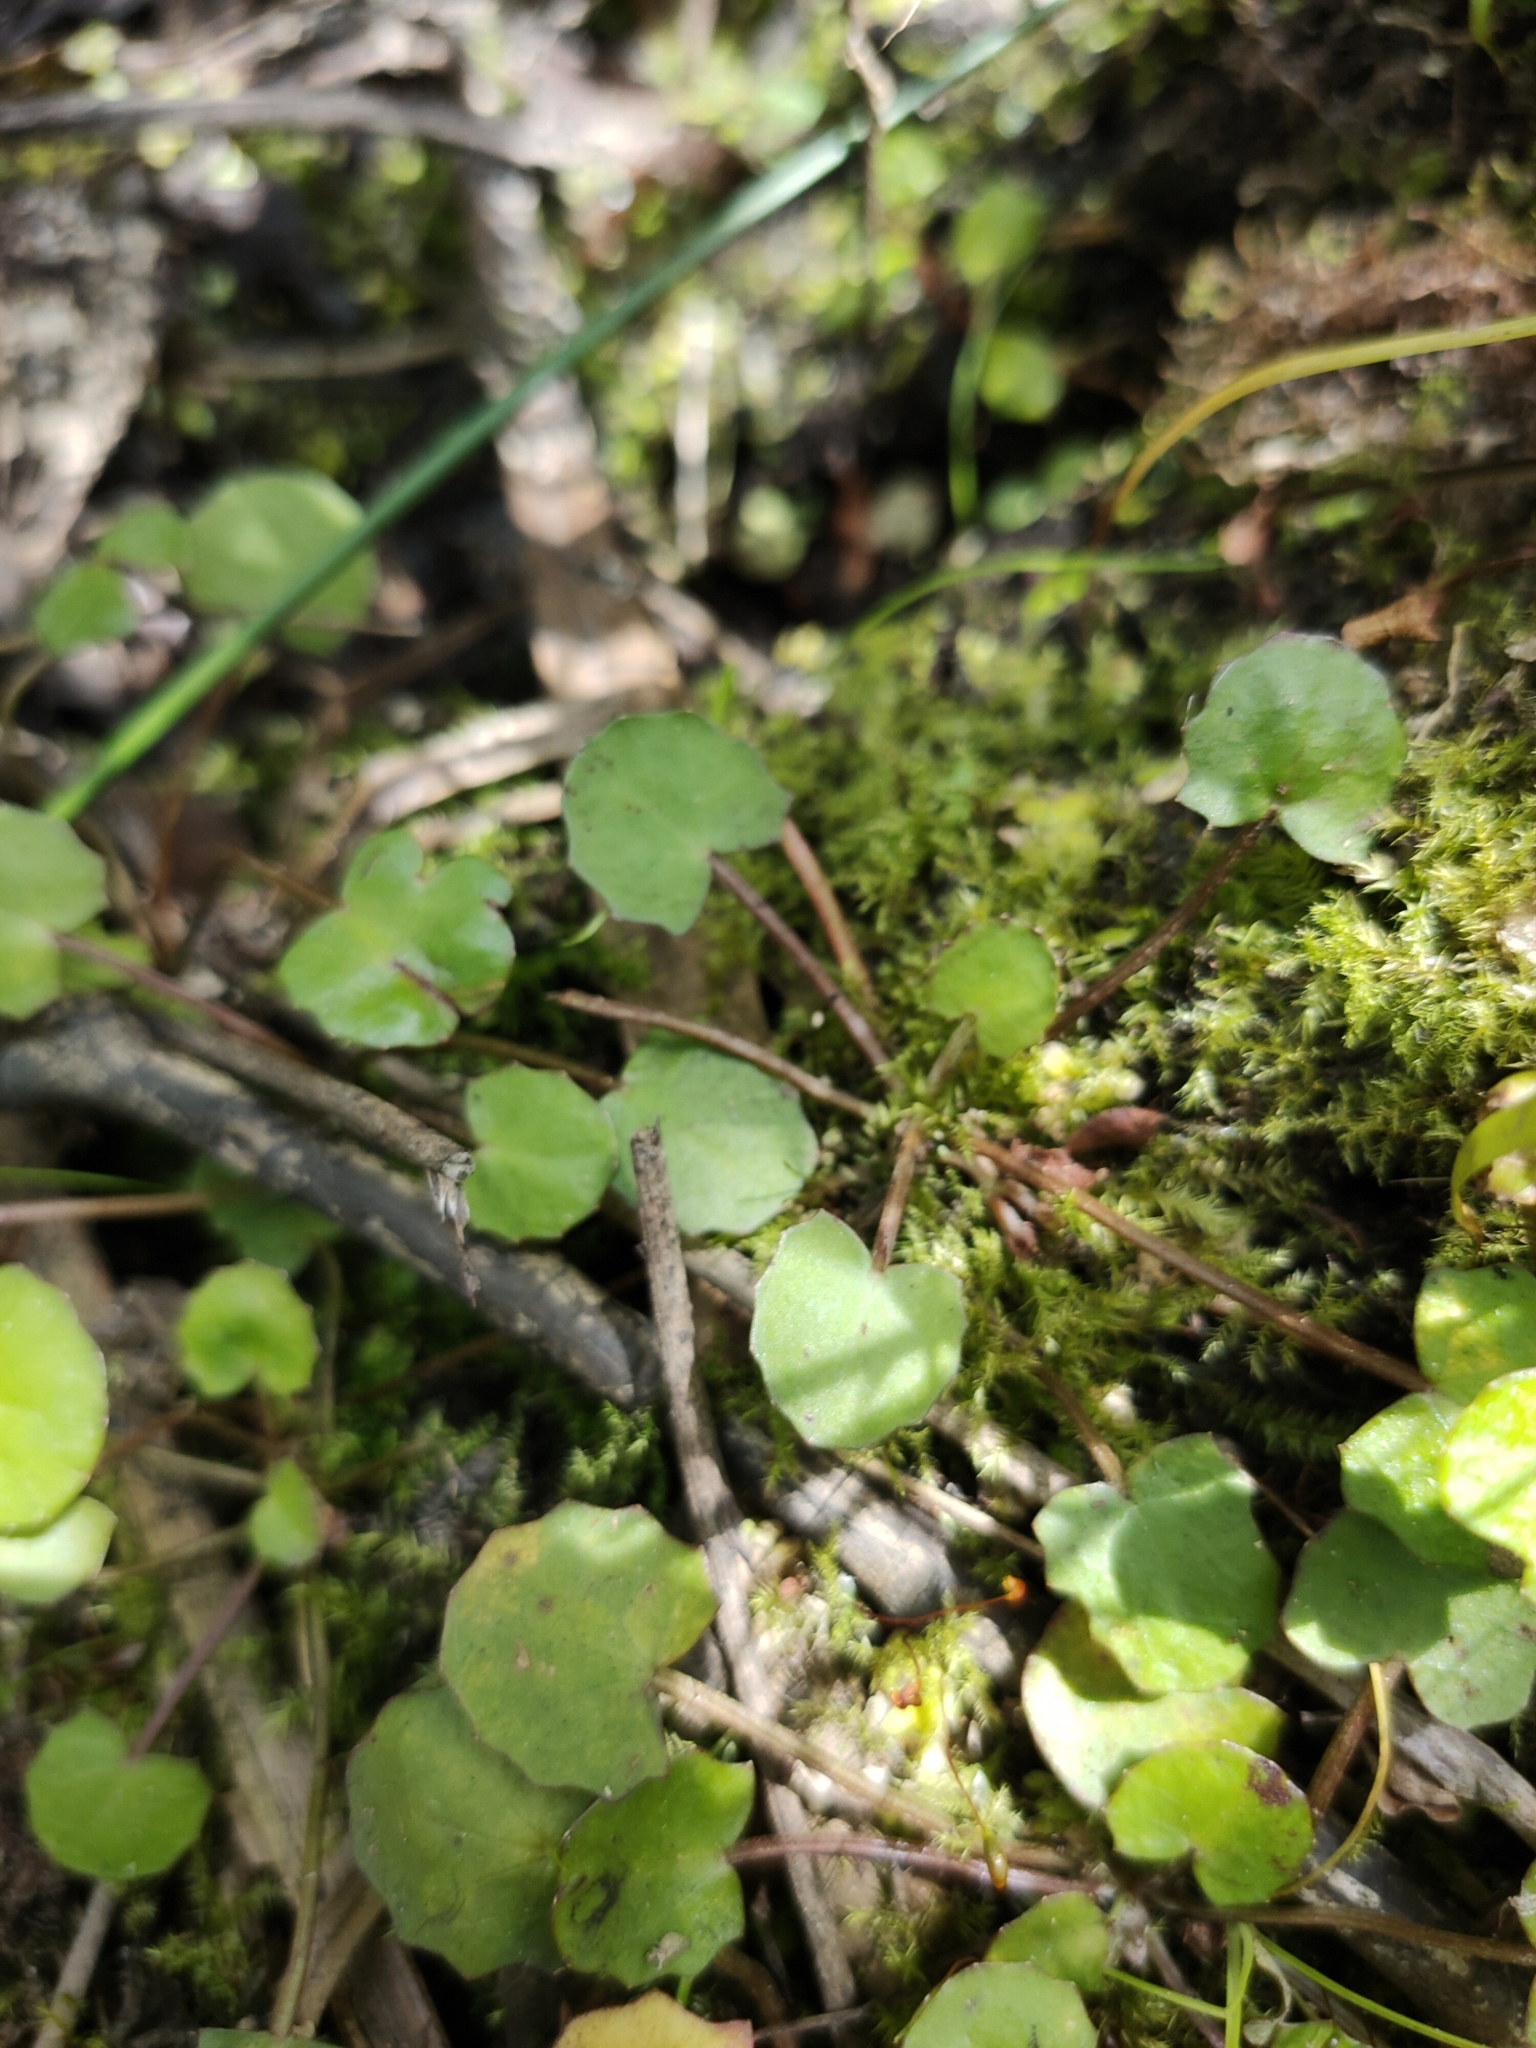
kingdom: Plantae
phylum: Tracheophyta
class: Magnoliopsida
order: Apiales
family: Apiaceae
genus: Centella
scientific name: Centella uniflora
